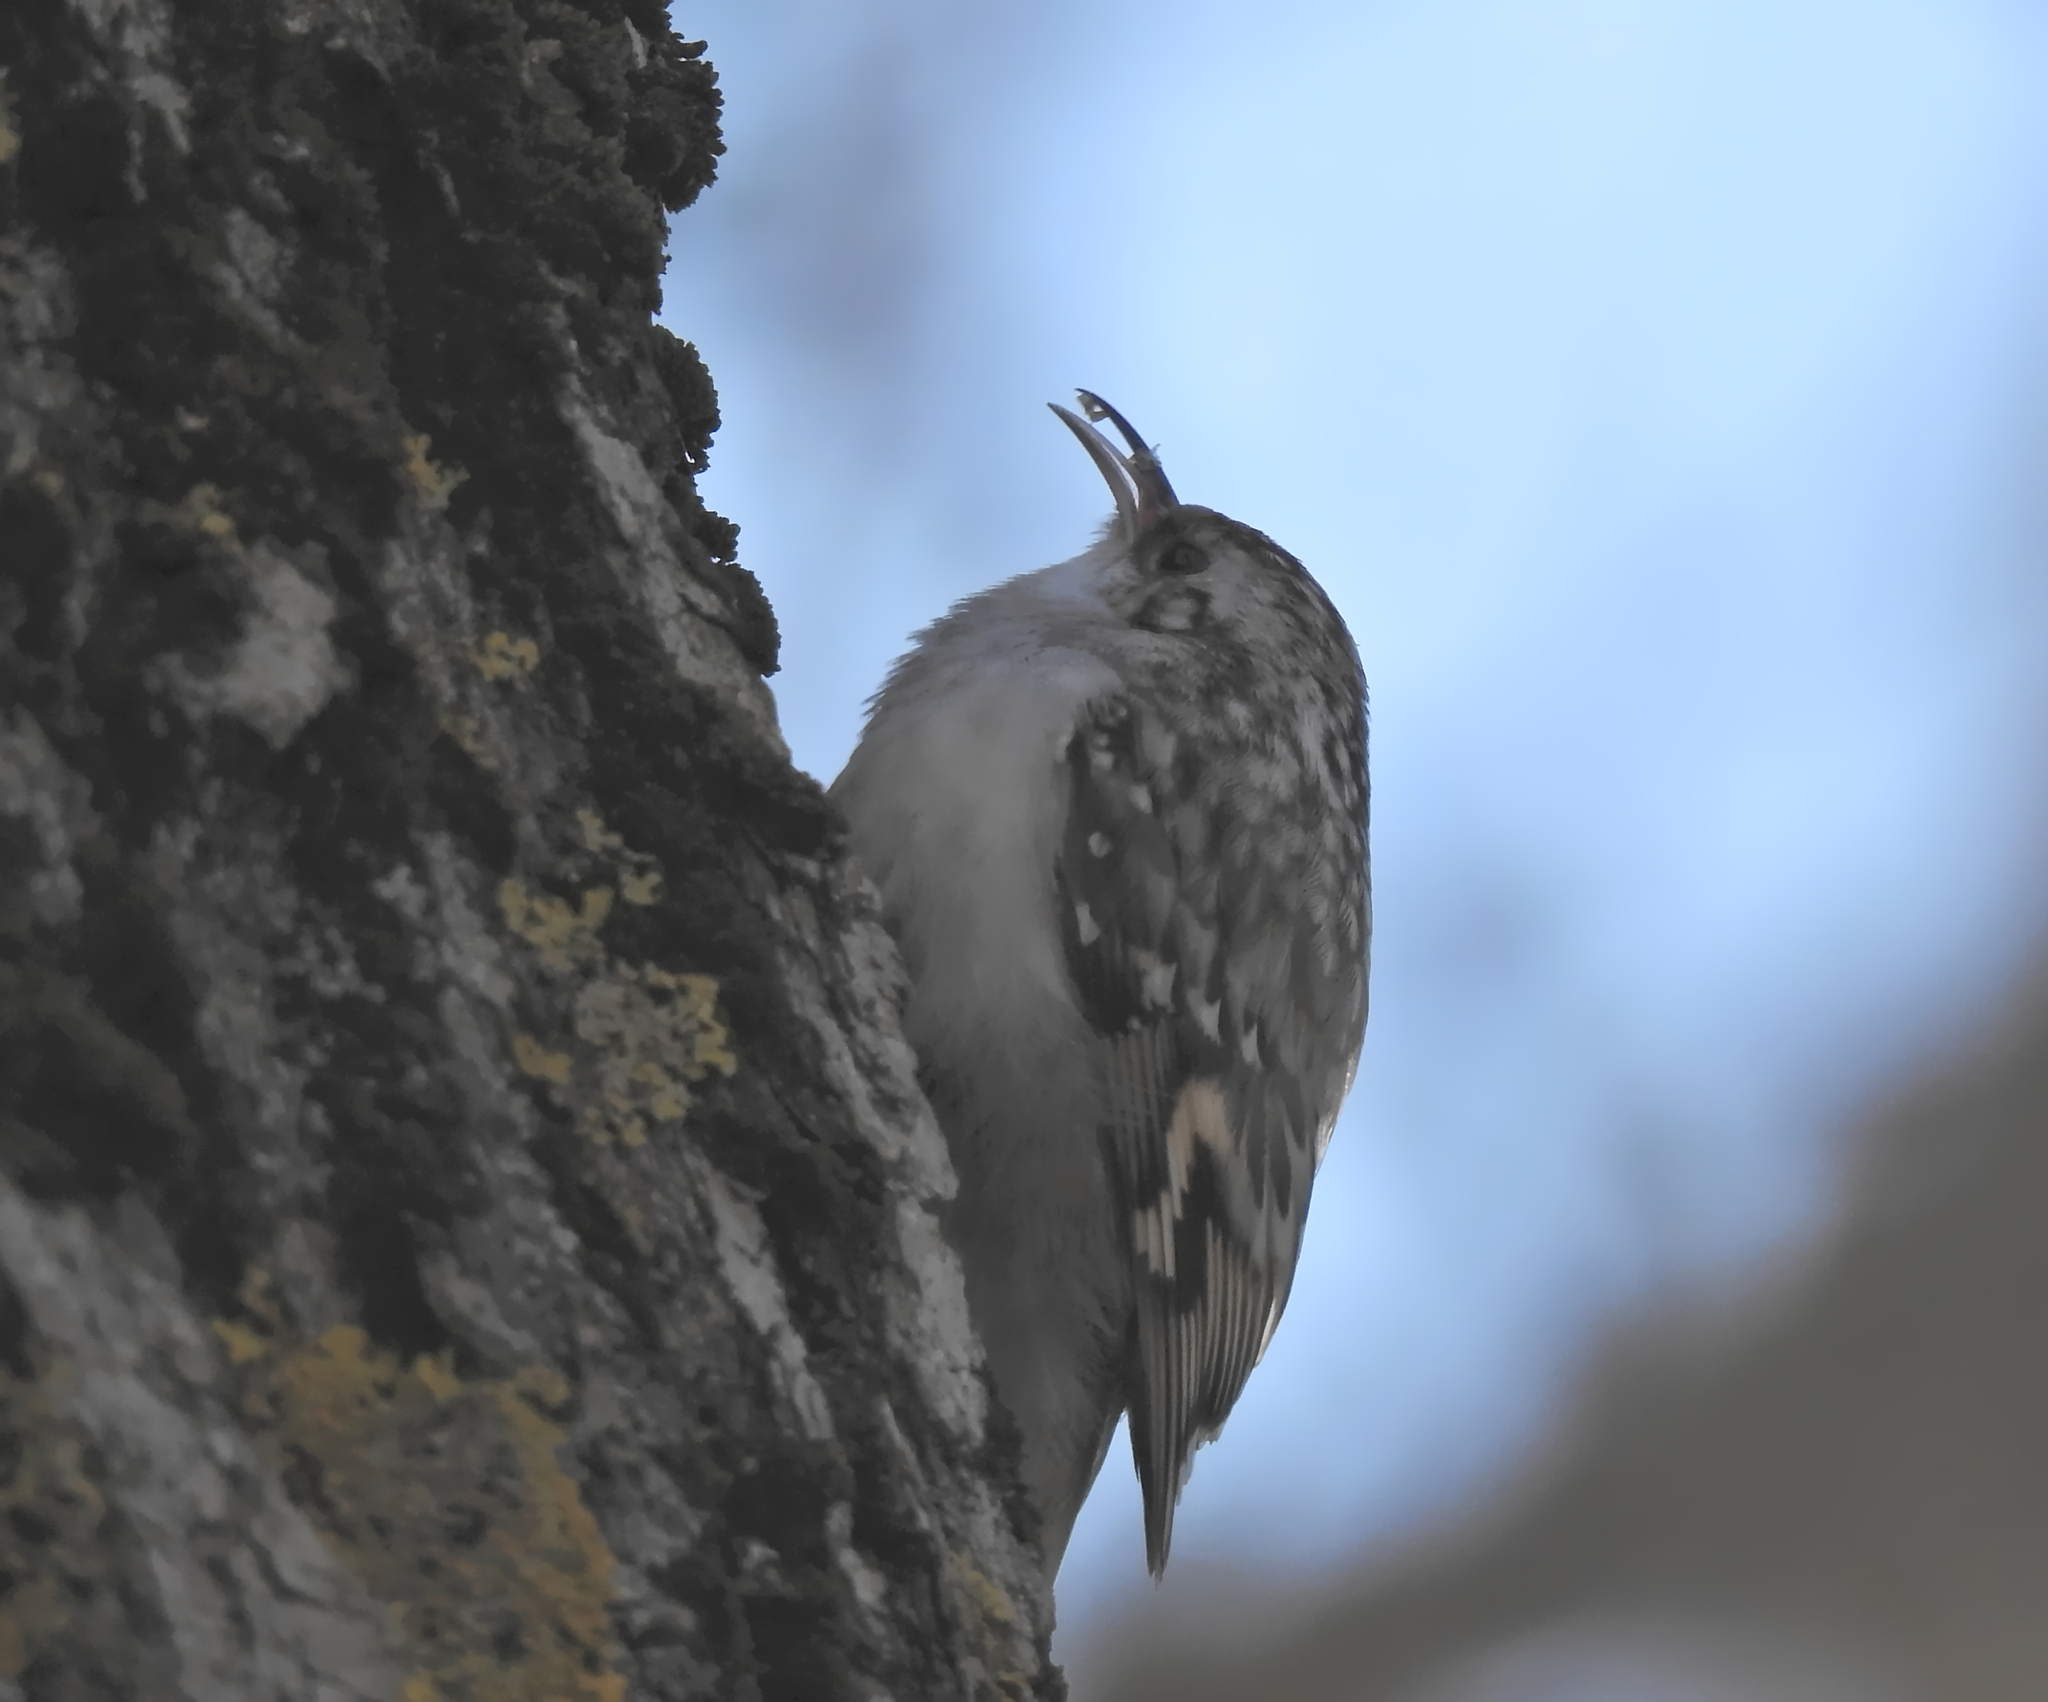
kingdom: Animalia
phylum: Chordata
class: Aves
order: Passeriformes
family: Certhiidae
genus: Certhia
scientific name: Certhia familiaris
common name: Eurasian treecreeper
